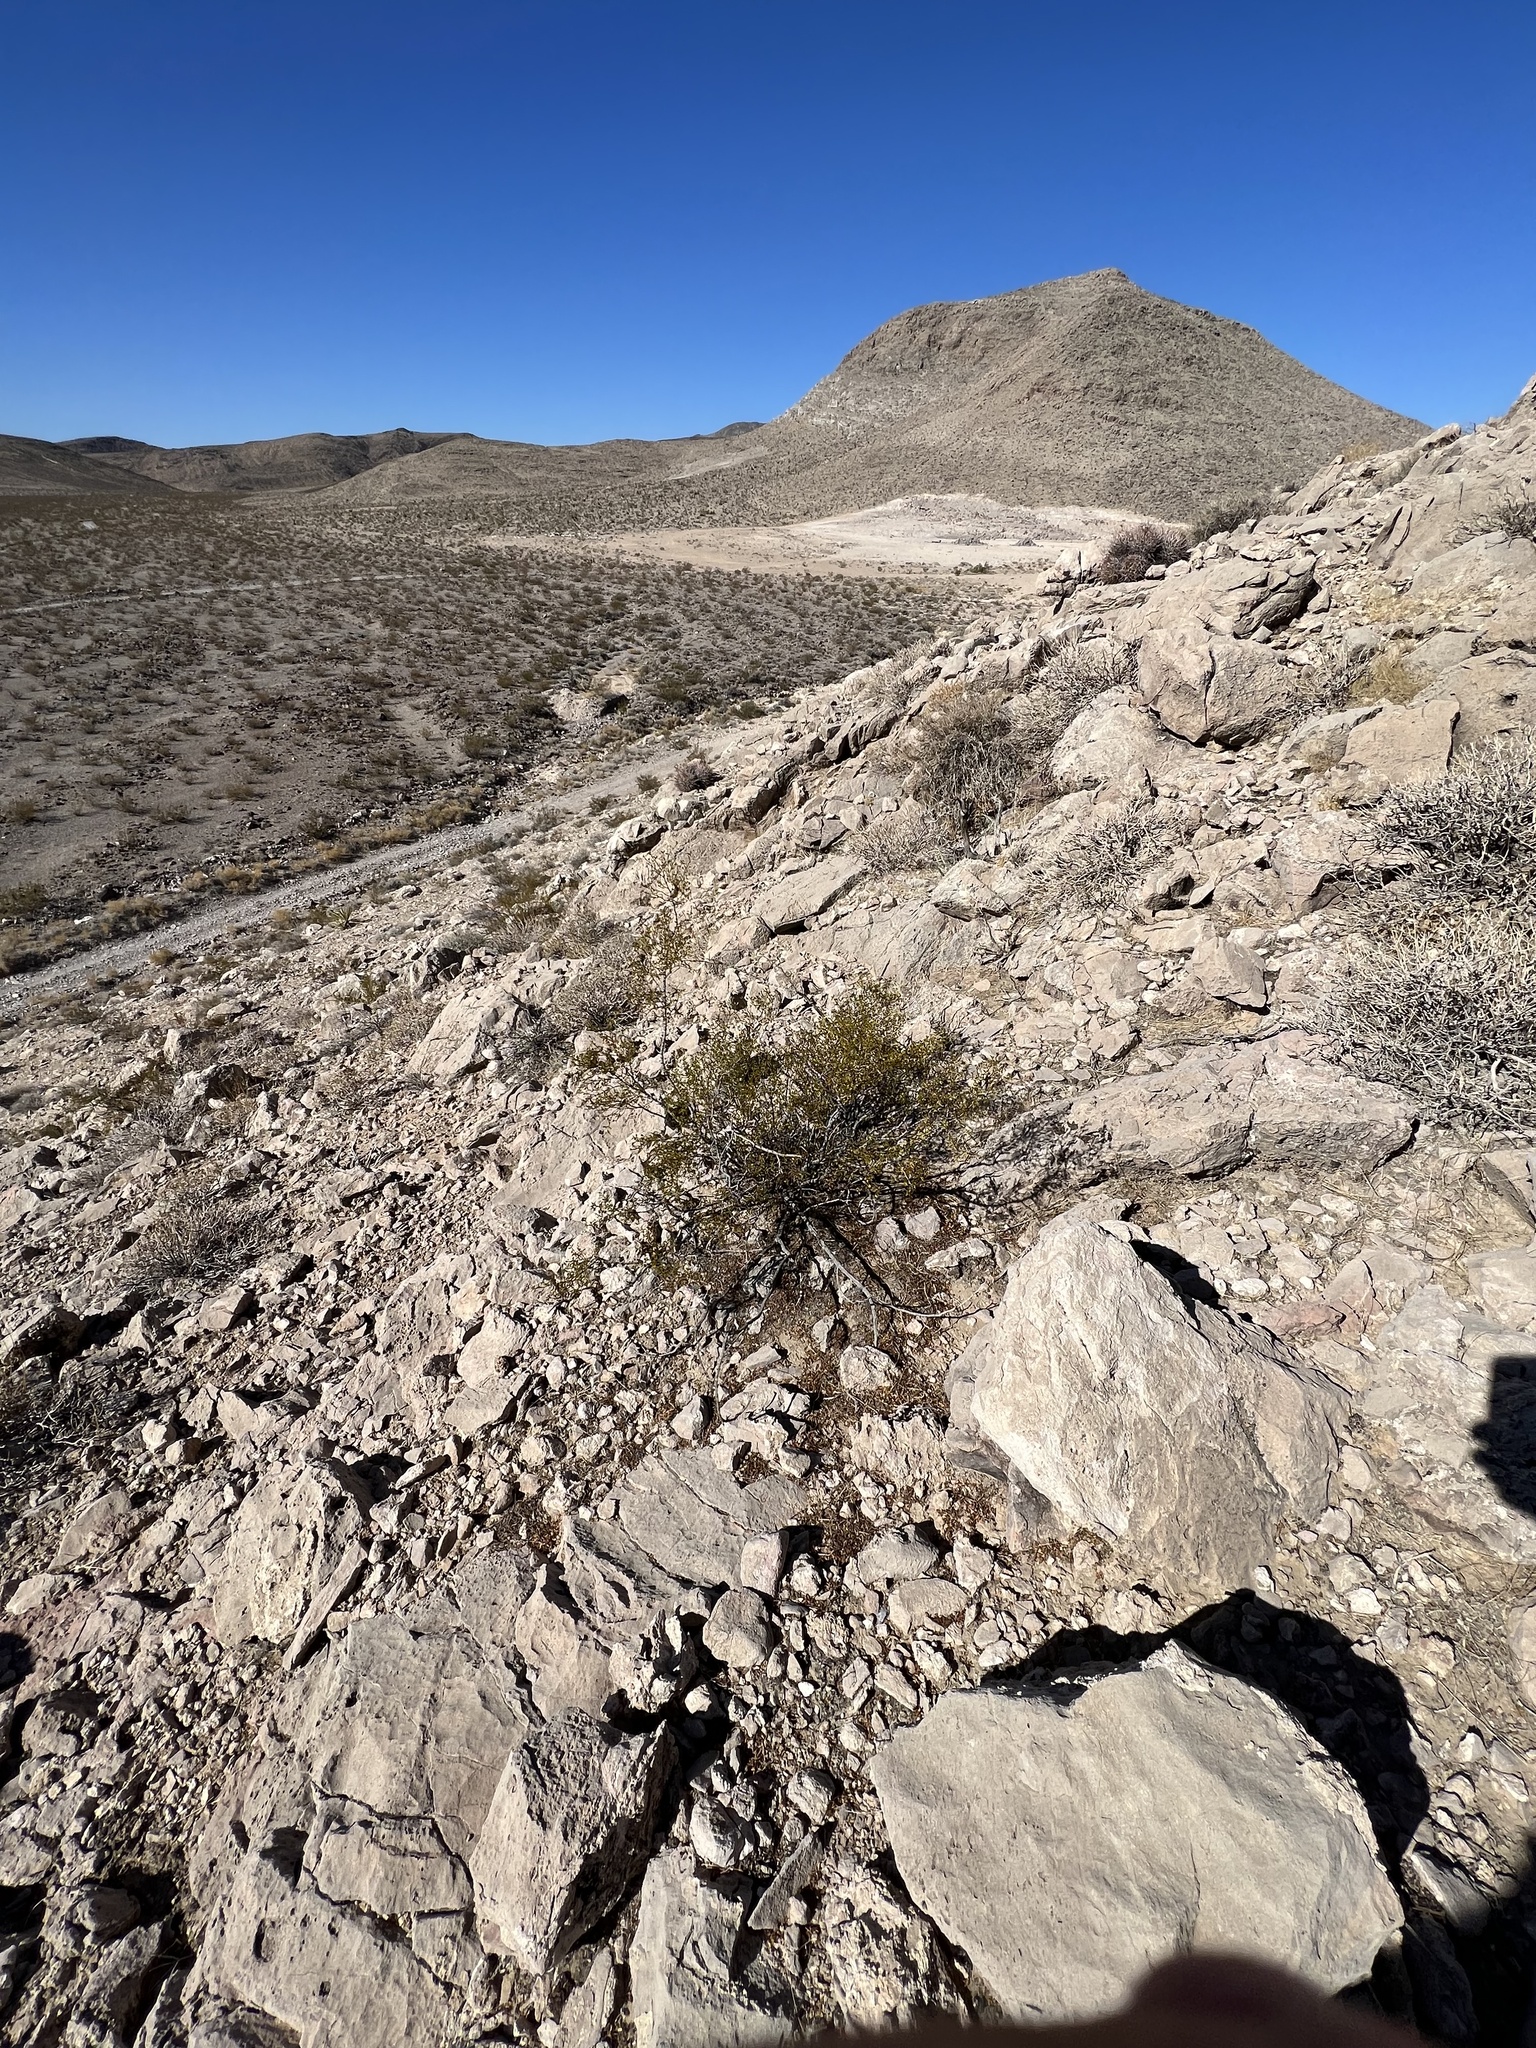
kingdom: Plantae
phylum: Tracheophyta
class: Magnoliopsida
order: Zygophyllales
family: Zygophyllaceae
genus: Larrea
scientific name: Larrea tridentata
